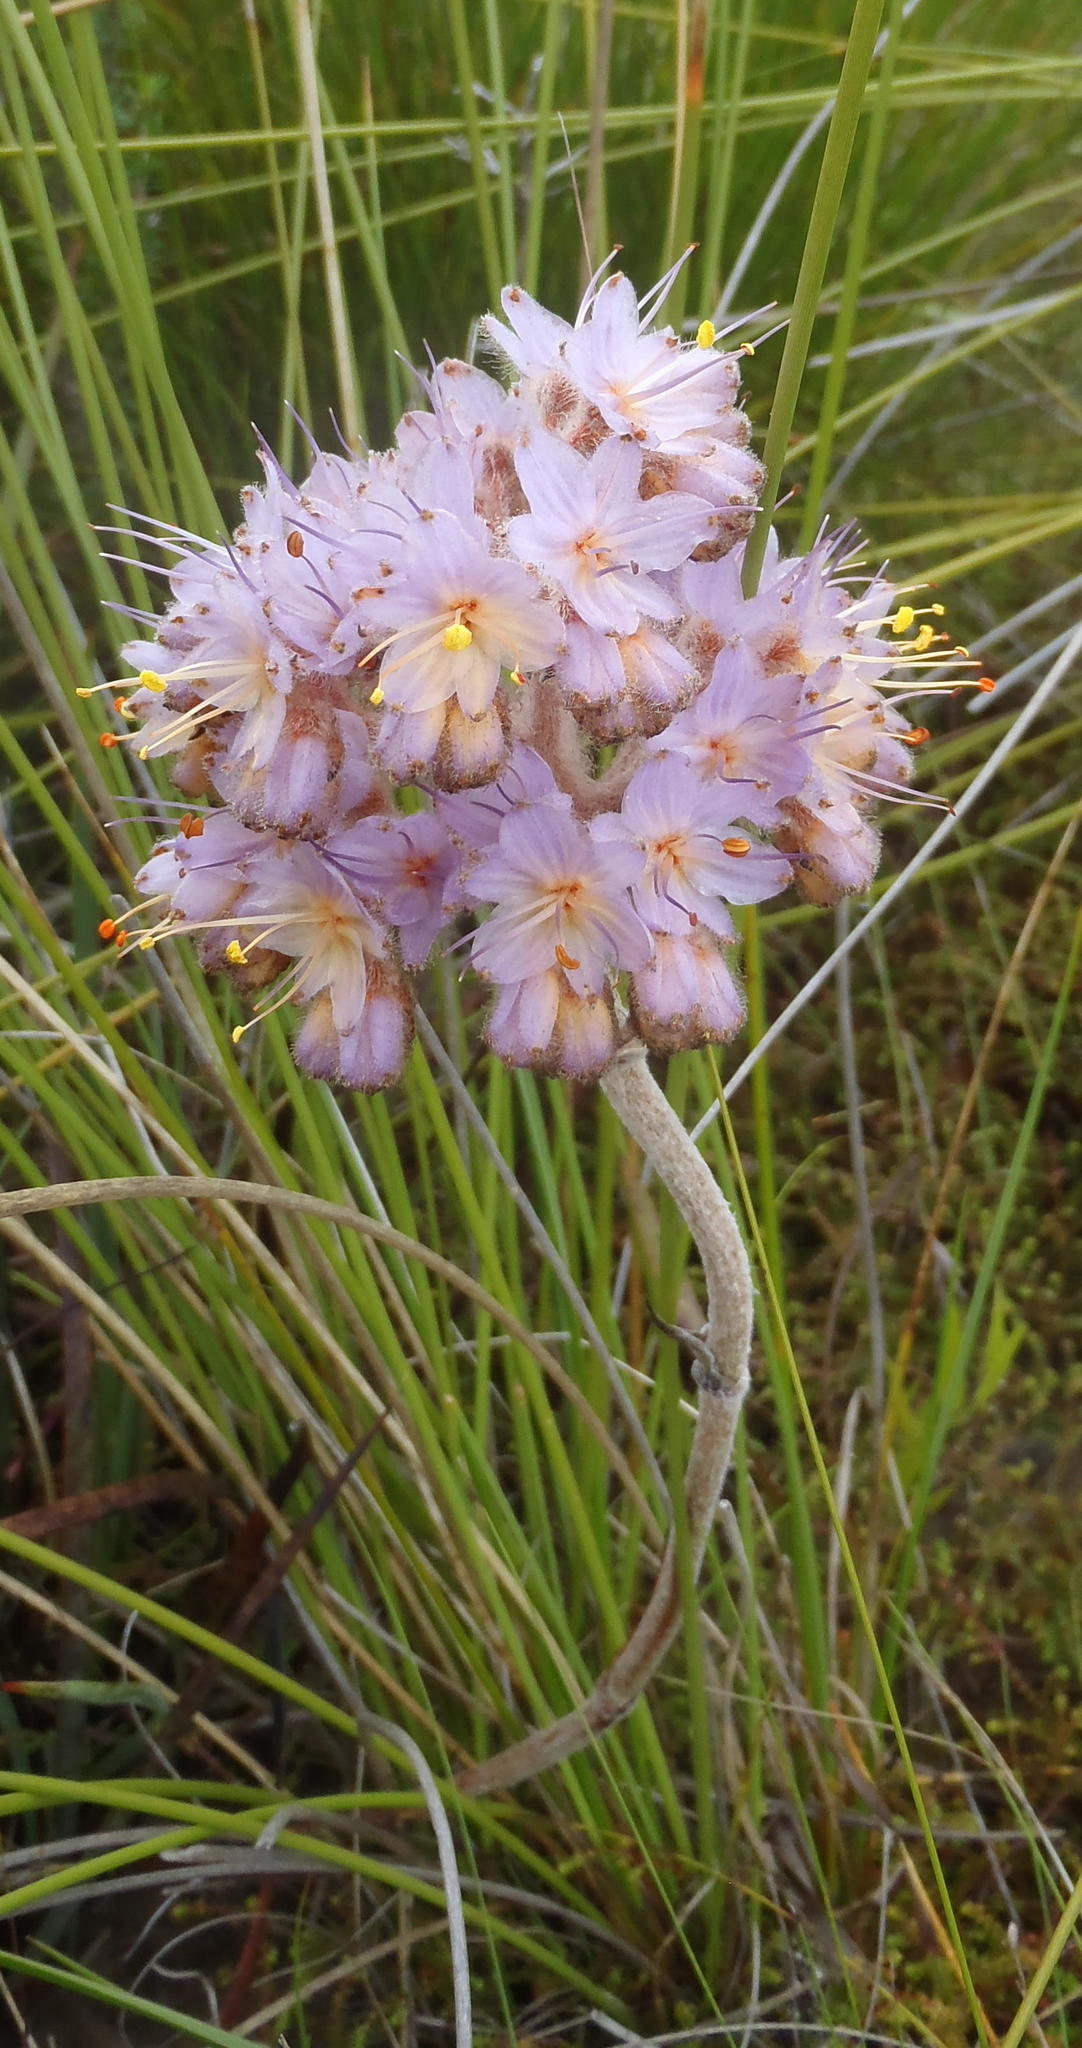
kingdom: Plantae
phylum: Tracheophyta
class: Liliopsida
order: Commelinales
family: Haemodoraceae
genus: Dilatris
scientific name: Dilatris ixioides
